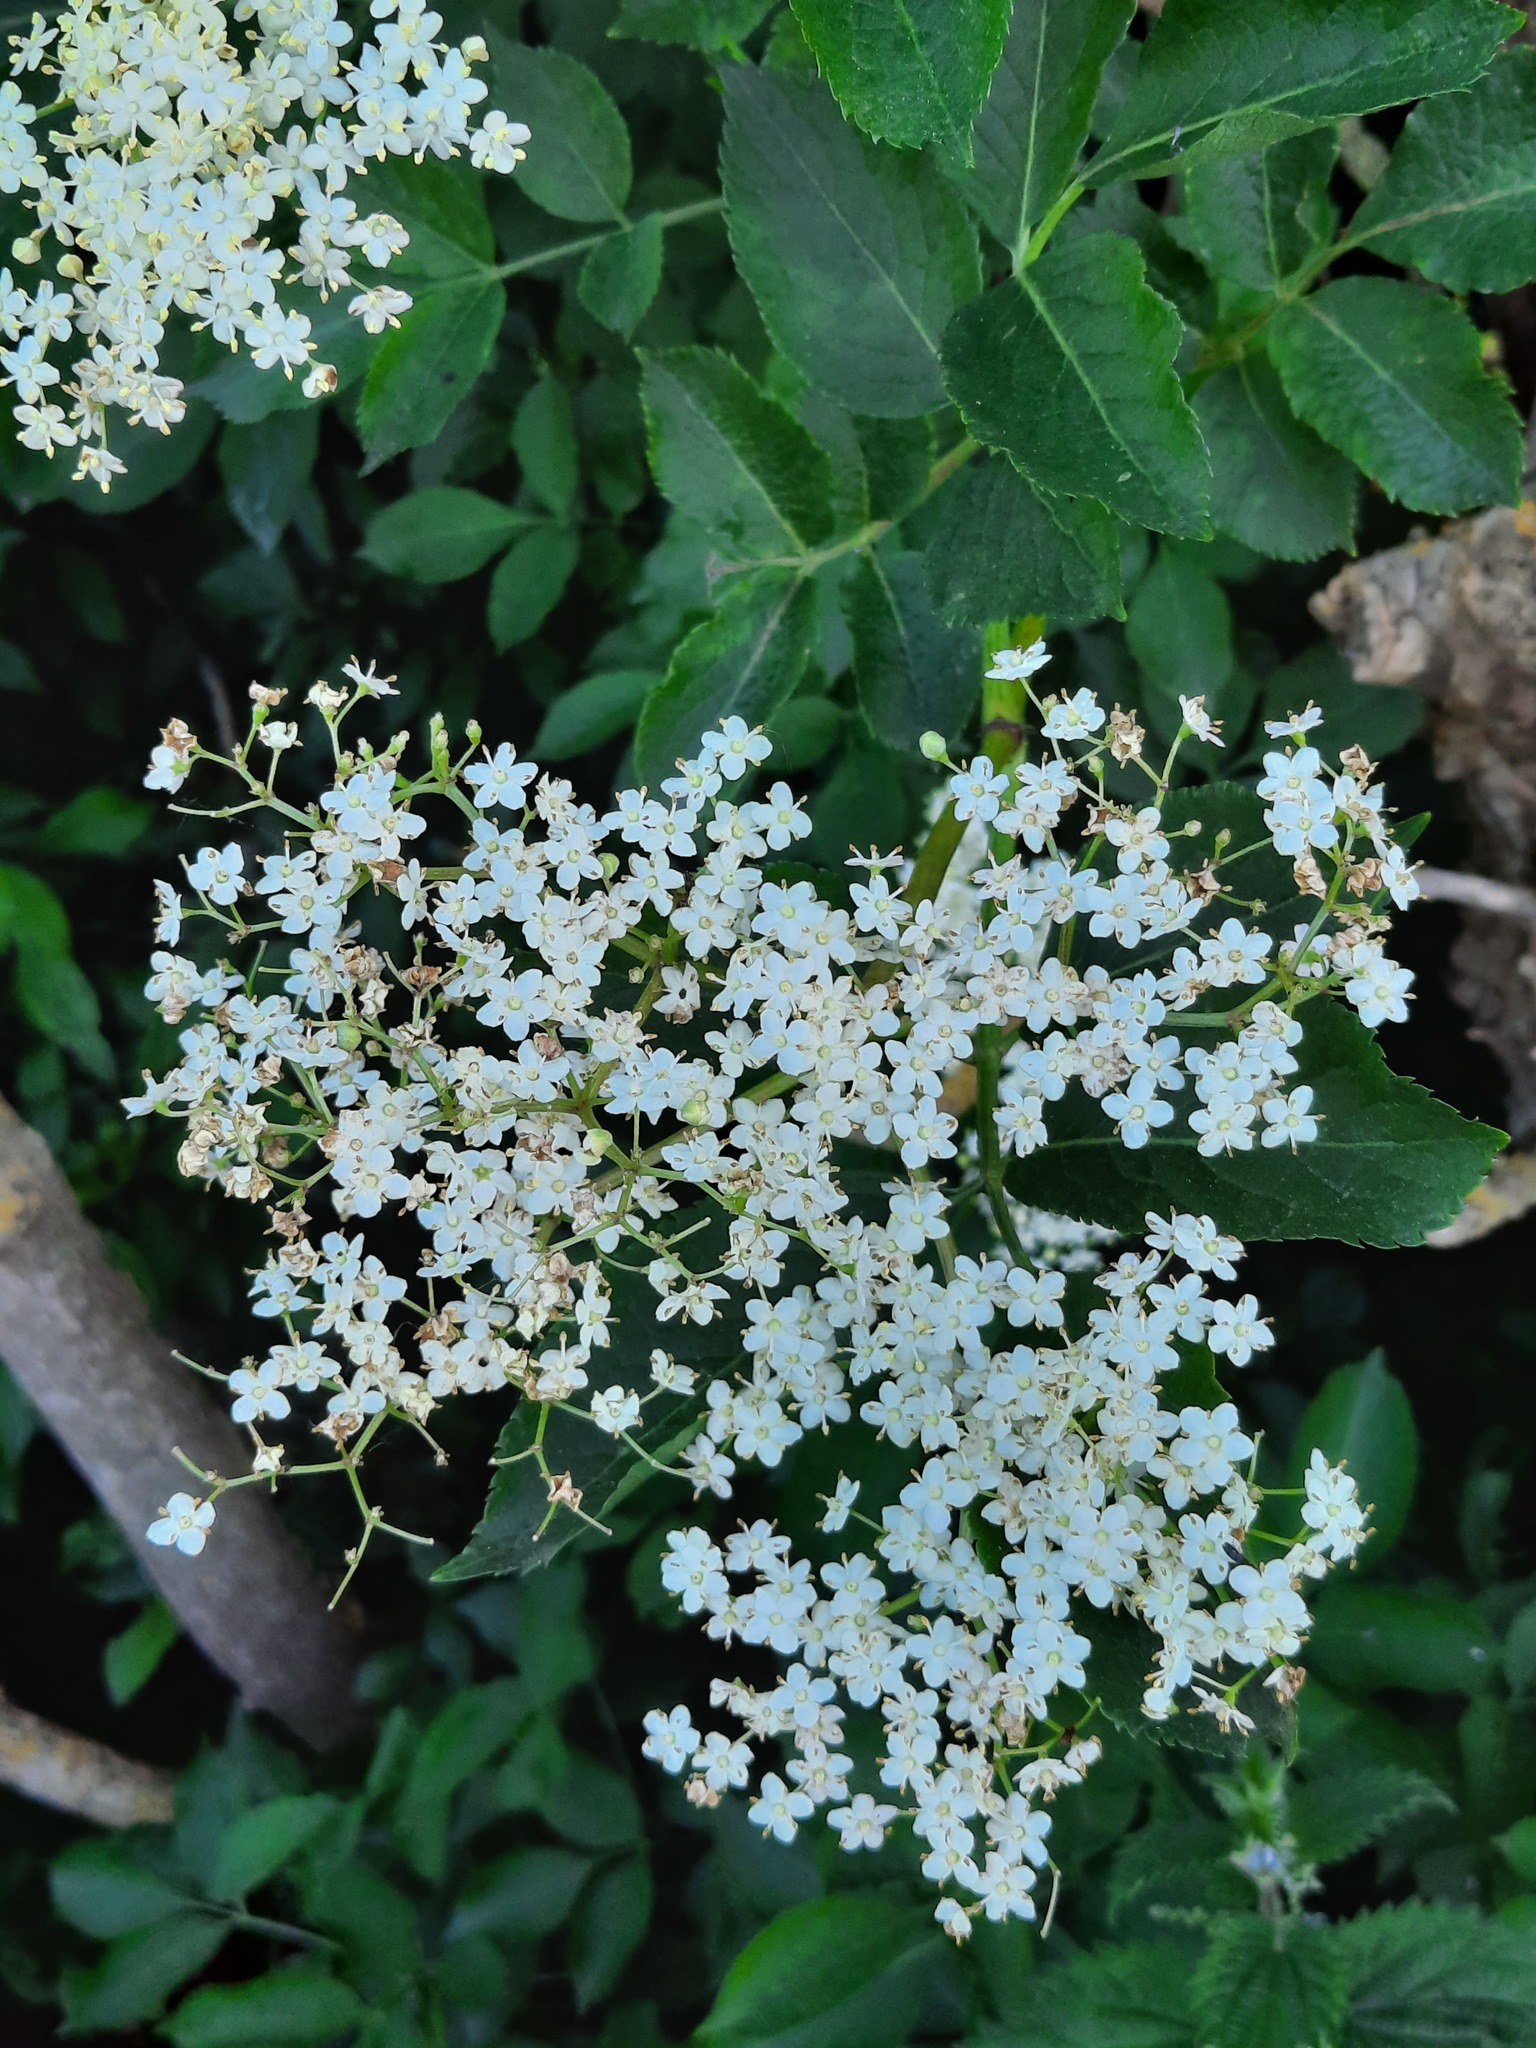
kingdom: Plantae
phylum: Tracheophyta
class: Magnoliopsida
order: Dipsacales
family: Viburnaceae
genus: Sambucus
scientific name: Sambucus nigra
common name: Elder
